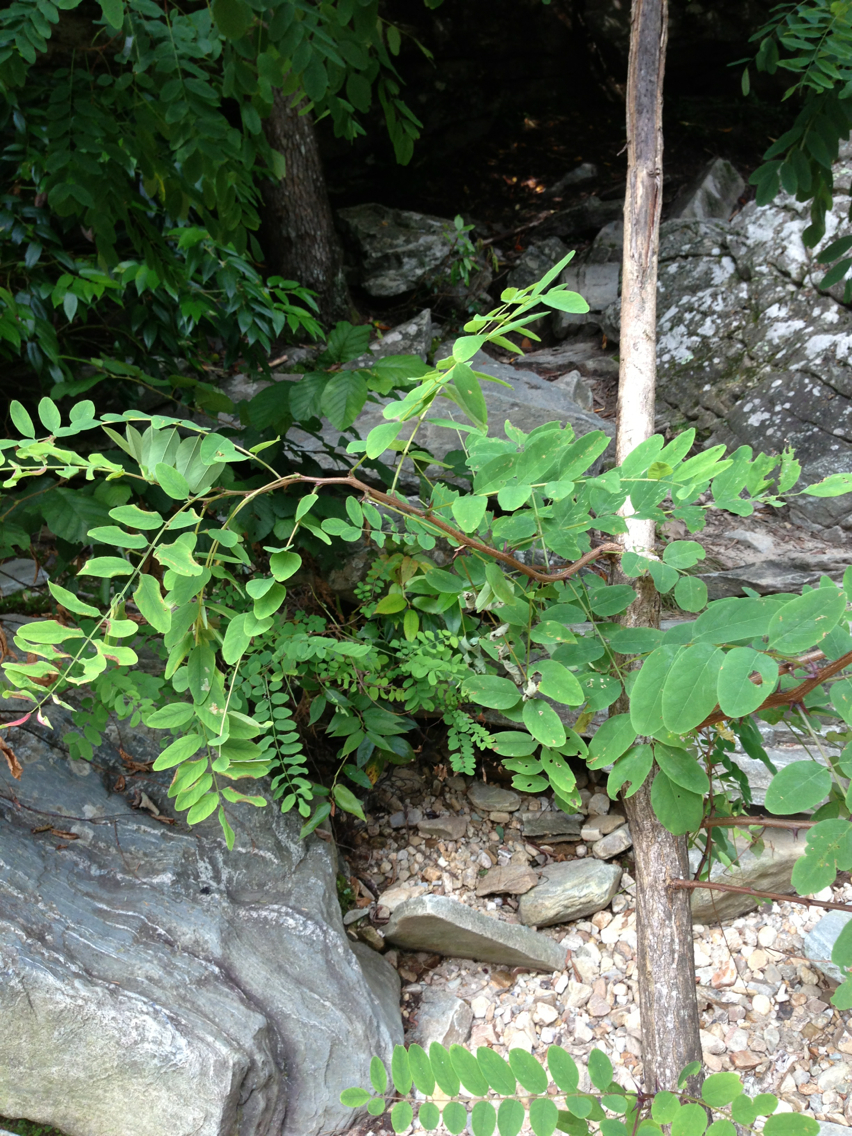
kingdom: Plantae
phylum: Tracheophyta
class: Magnoliopsida
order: Fabales
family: Fabaceae
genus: Robinia
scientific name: Robinia pseudoacacia
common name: Black locust
